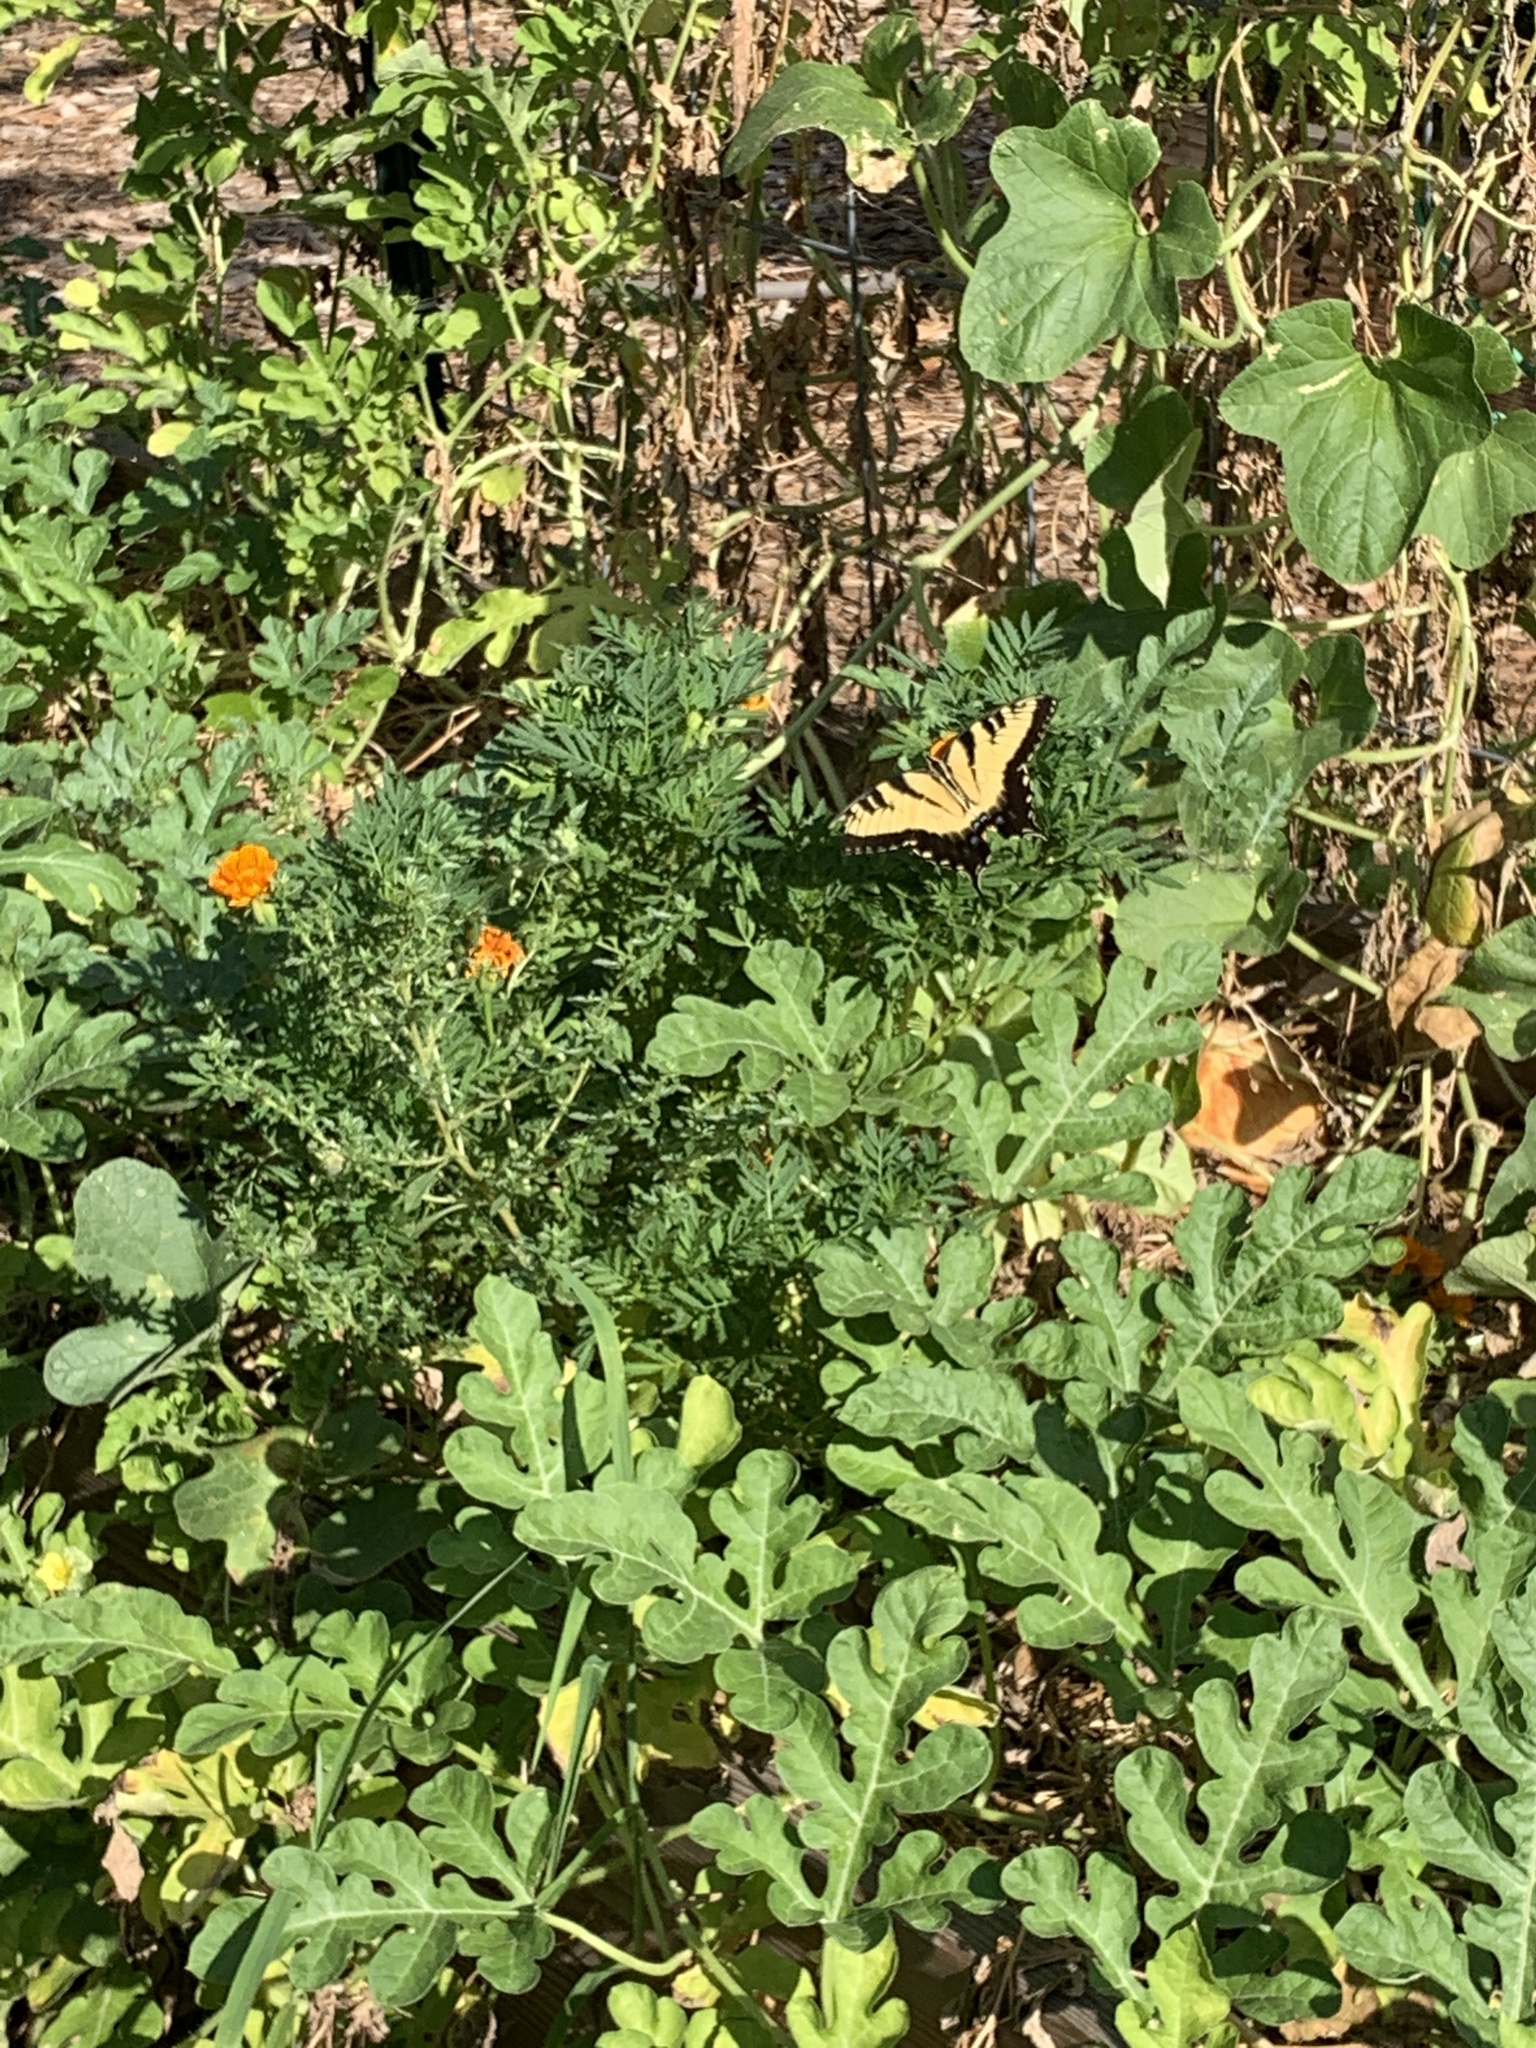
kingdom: Animalia
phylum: Arthropoda
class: Insecta
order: Lepidoptera
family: Papilionidae
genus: Papilio
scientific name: Papilio glaucus
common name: Tiger swallowtail
